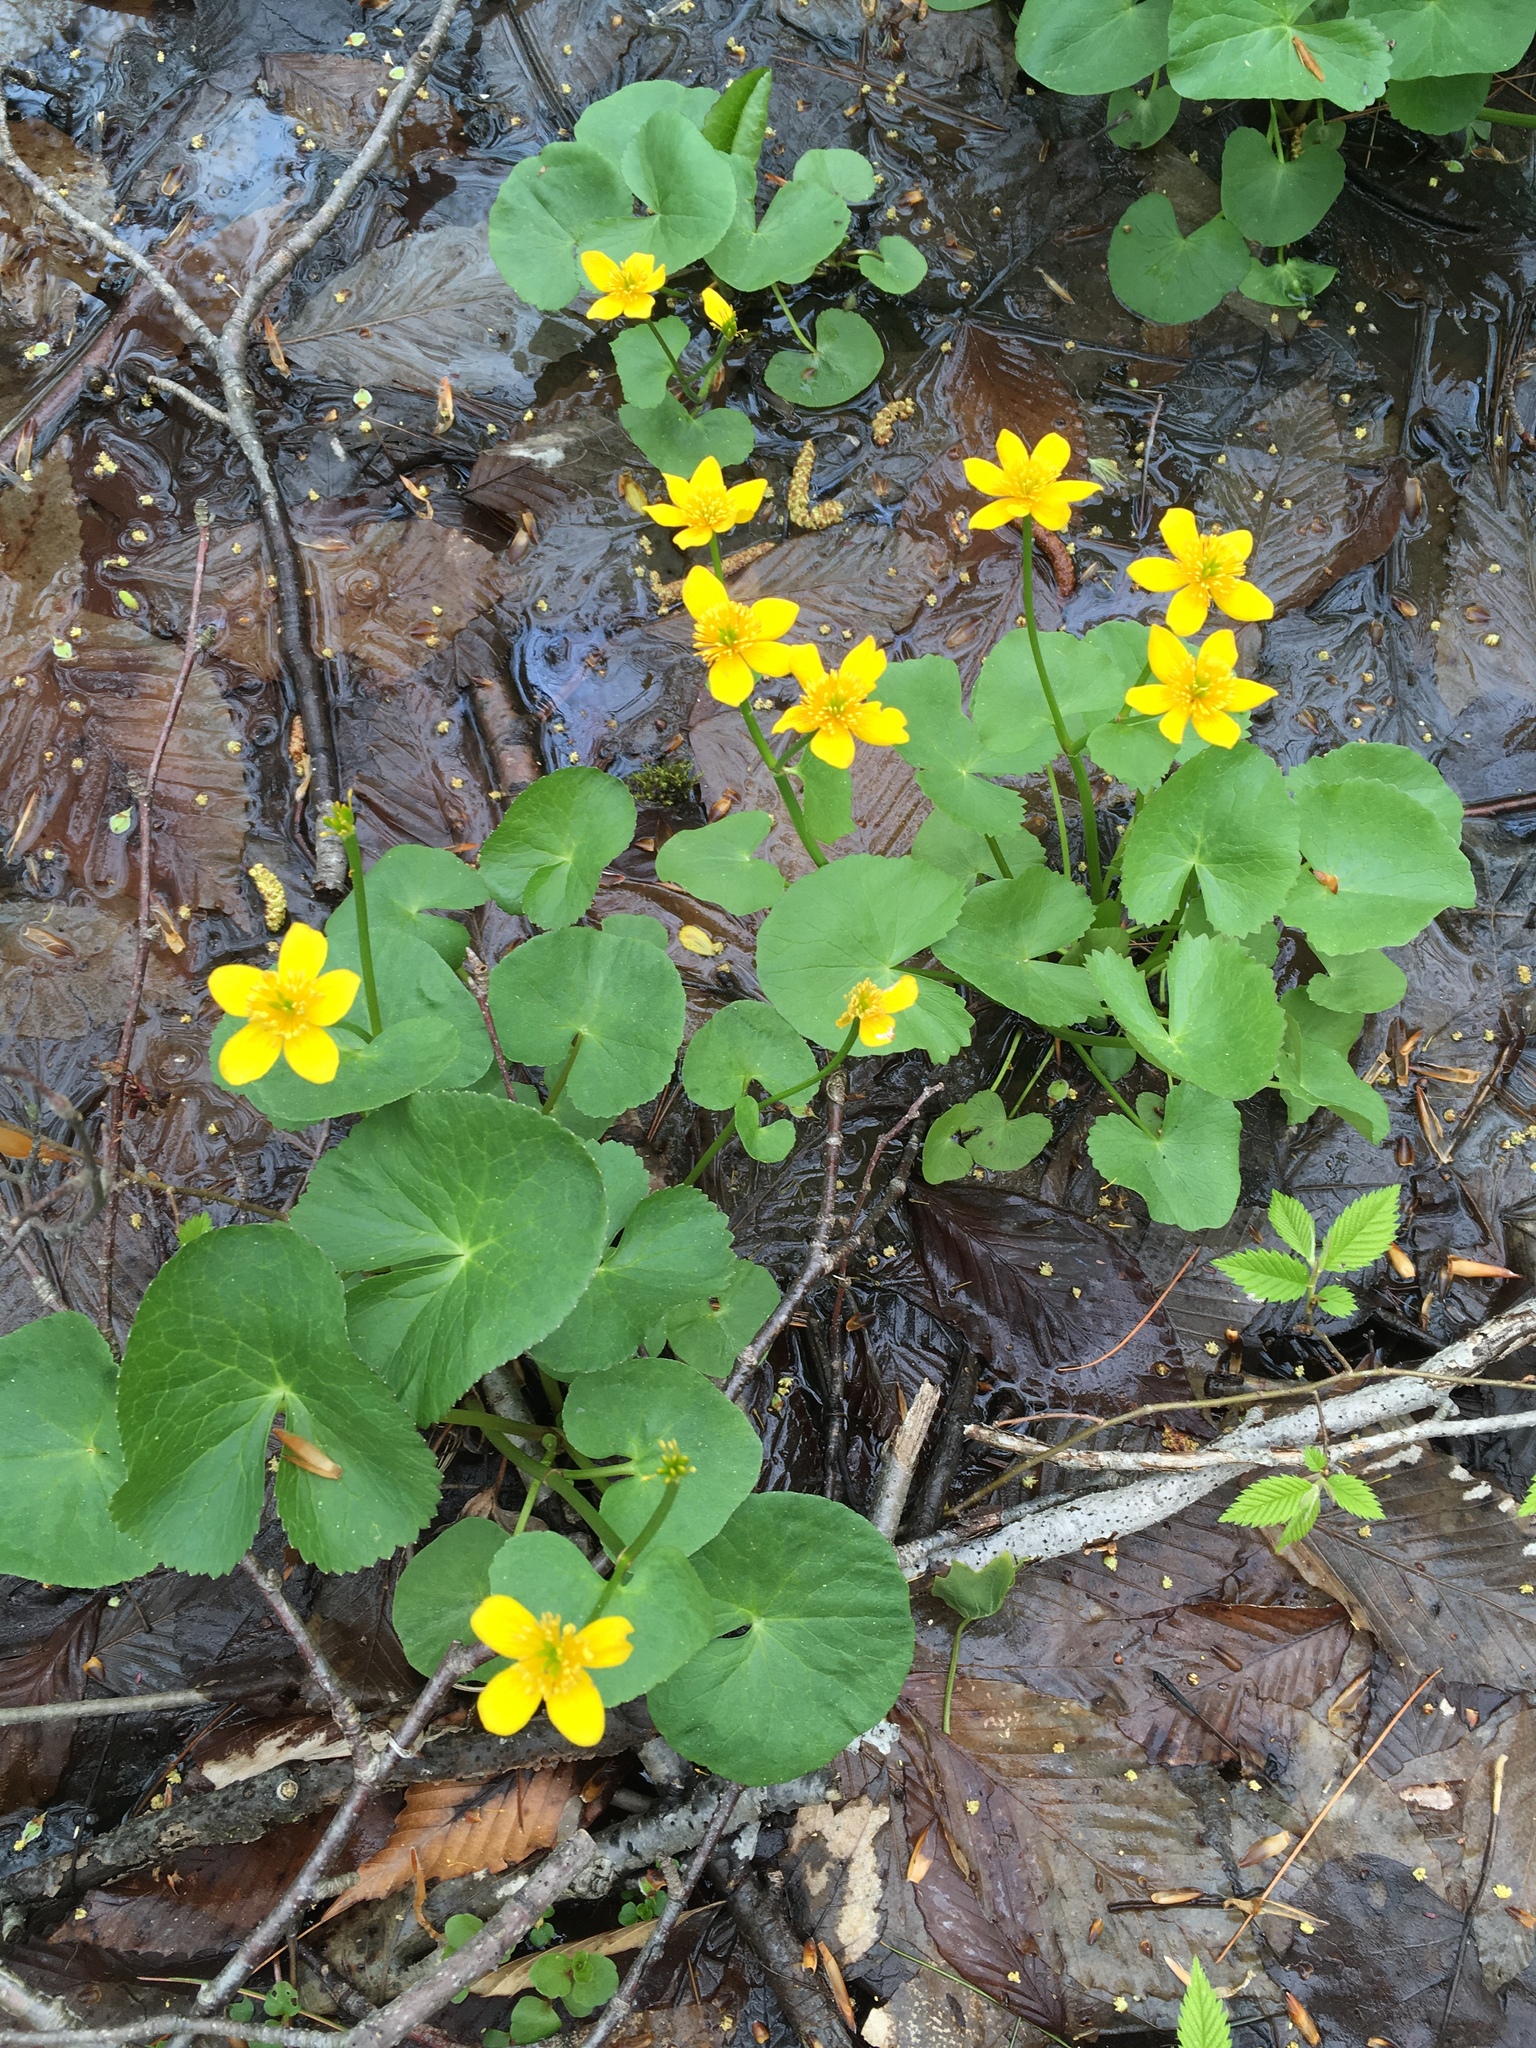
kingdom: Plantae
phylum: Tracheophyta
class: Magnoliopsida
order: Ranunculales
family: Ranunculaceae
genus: Caltha
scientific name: Caltha palustris
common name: Marsh marigold
